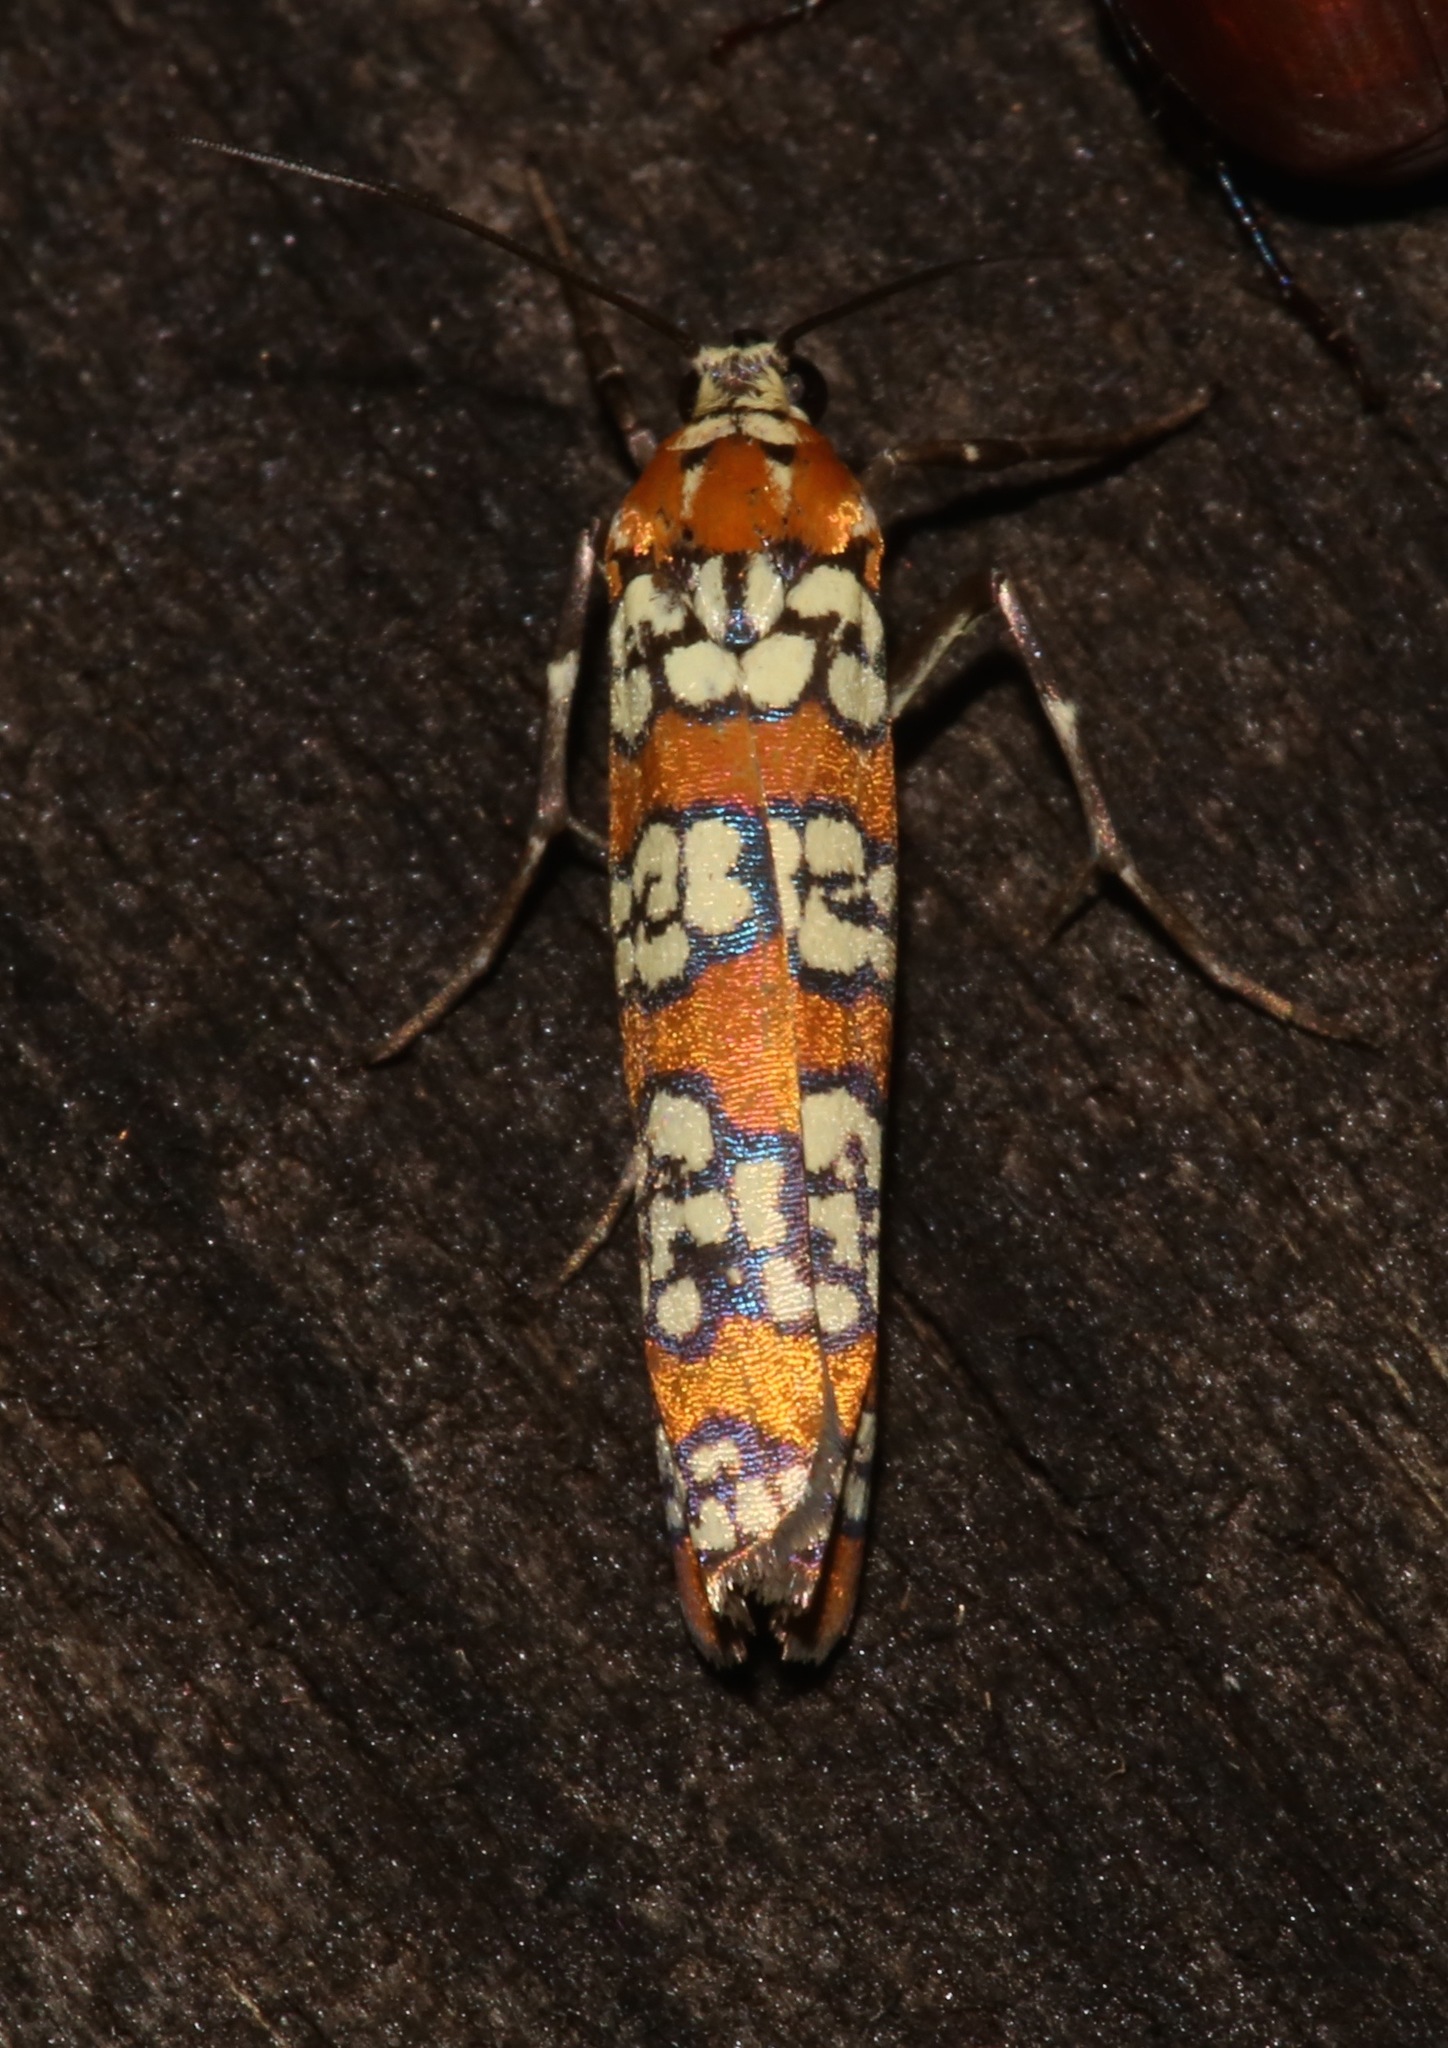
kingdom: Animalia
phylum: Arthropoda
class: Insecta
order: Lepidoptera
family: Attevidae
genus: Atteva
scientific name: Atteva punctella
